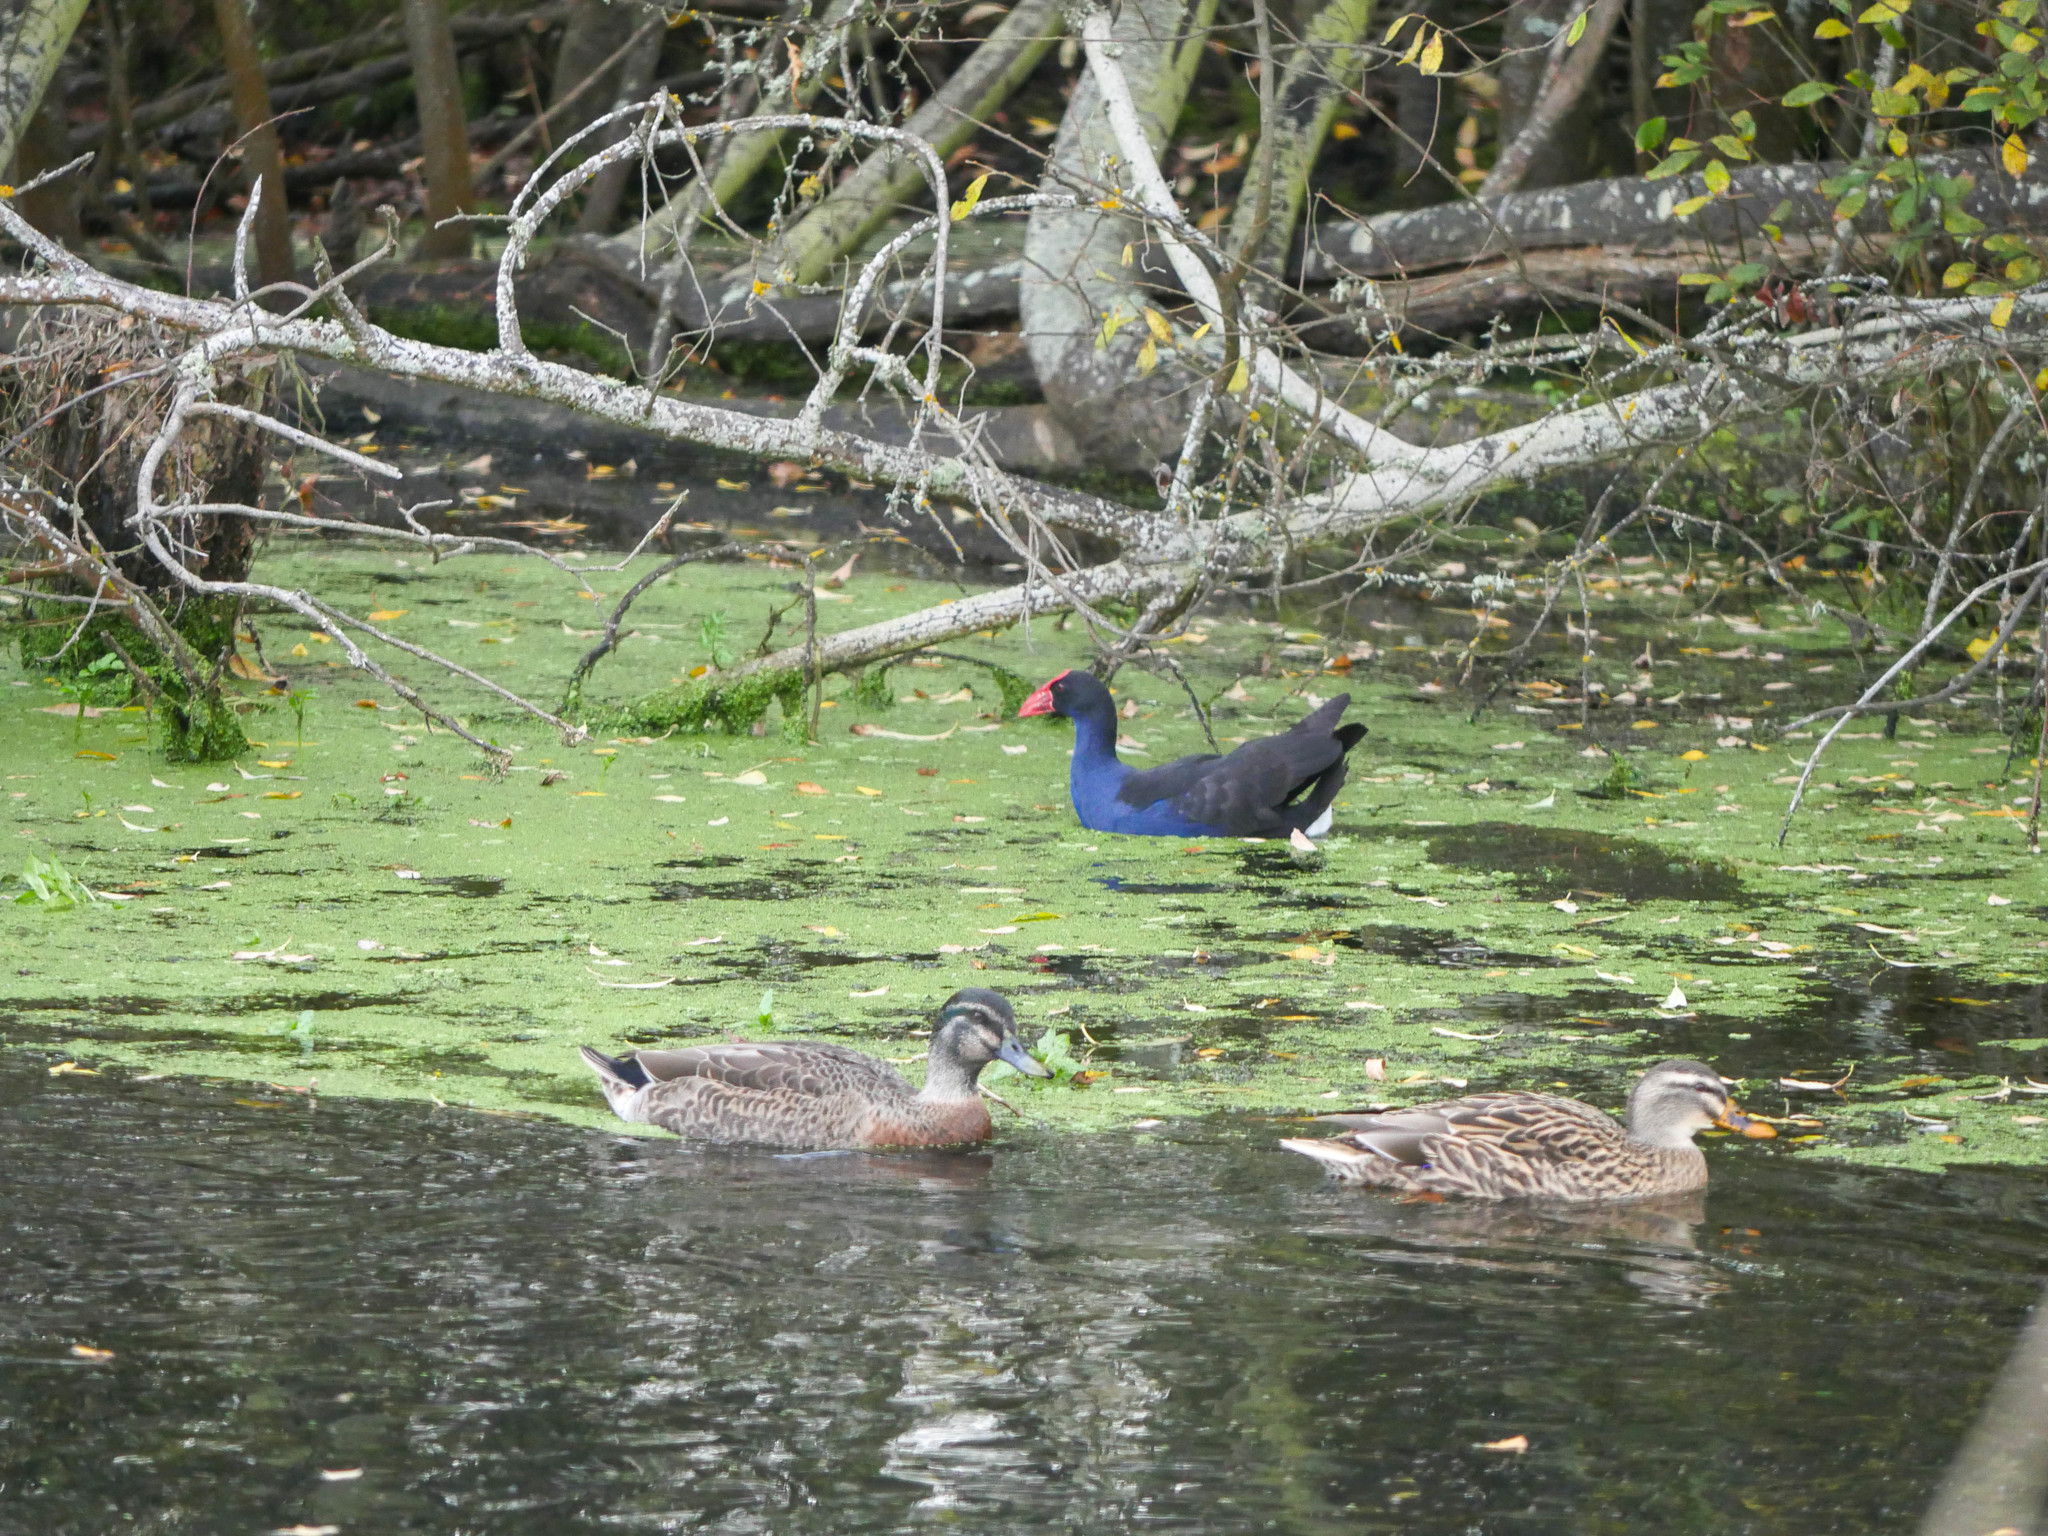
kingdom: Animalia
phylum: Chordata
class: Aves
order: Gruiformes
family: Rallidae
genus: Porphyrio
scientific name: Porphyrio melanotus
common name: Australasian swamphen
